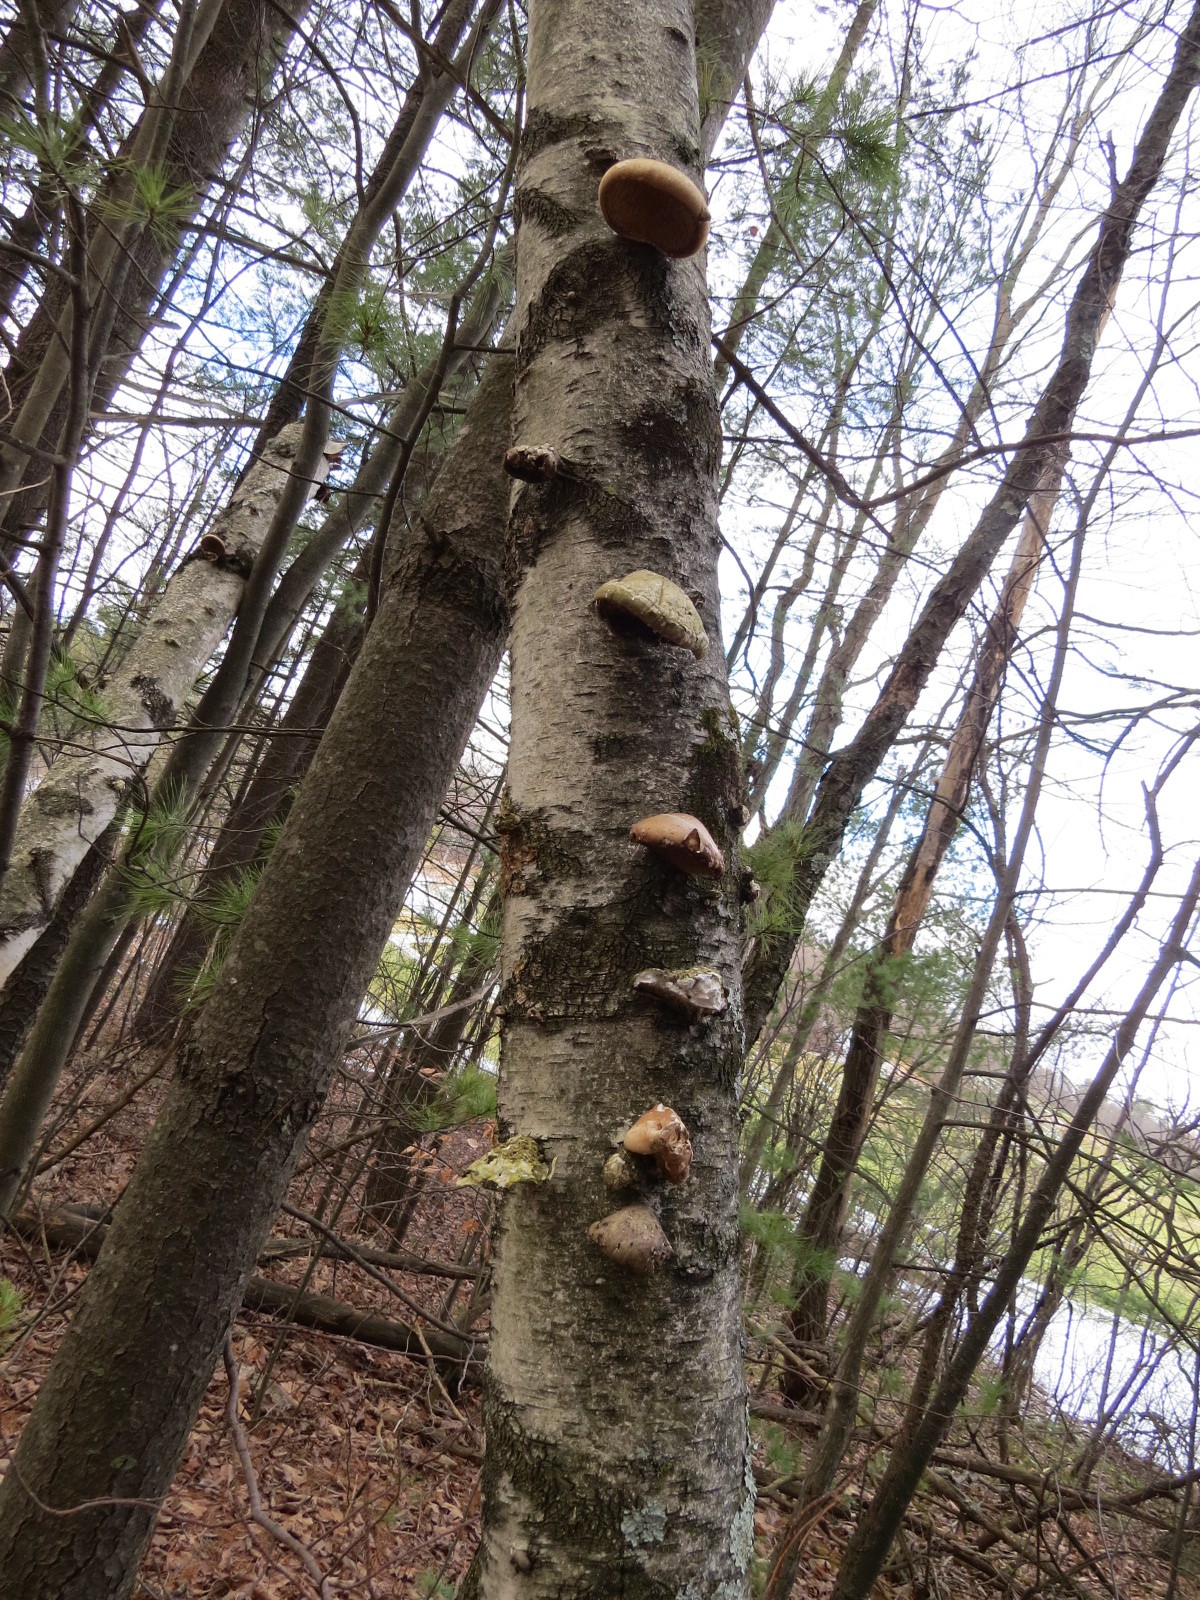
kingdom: Fungi
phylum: Basidiomycota
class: Agaricomycetes
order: Polyporales
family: Fomitopsidaceae
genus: Fomitopsis
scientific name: Fomitopsis betulina
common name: Birch polypore
